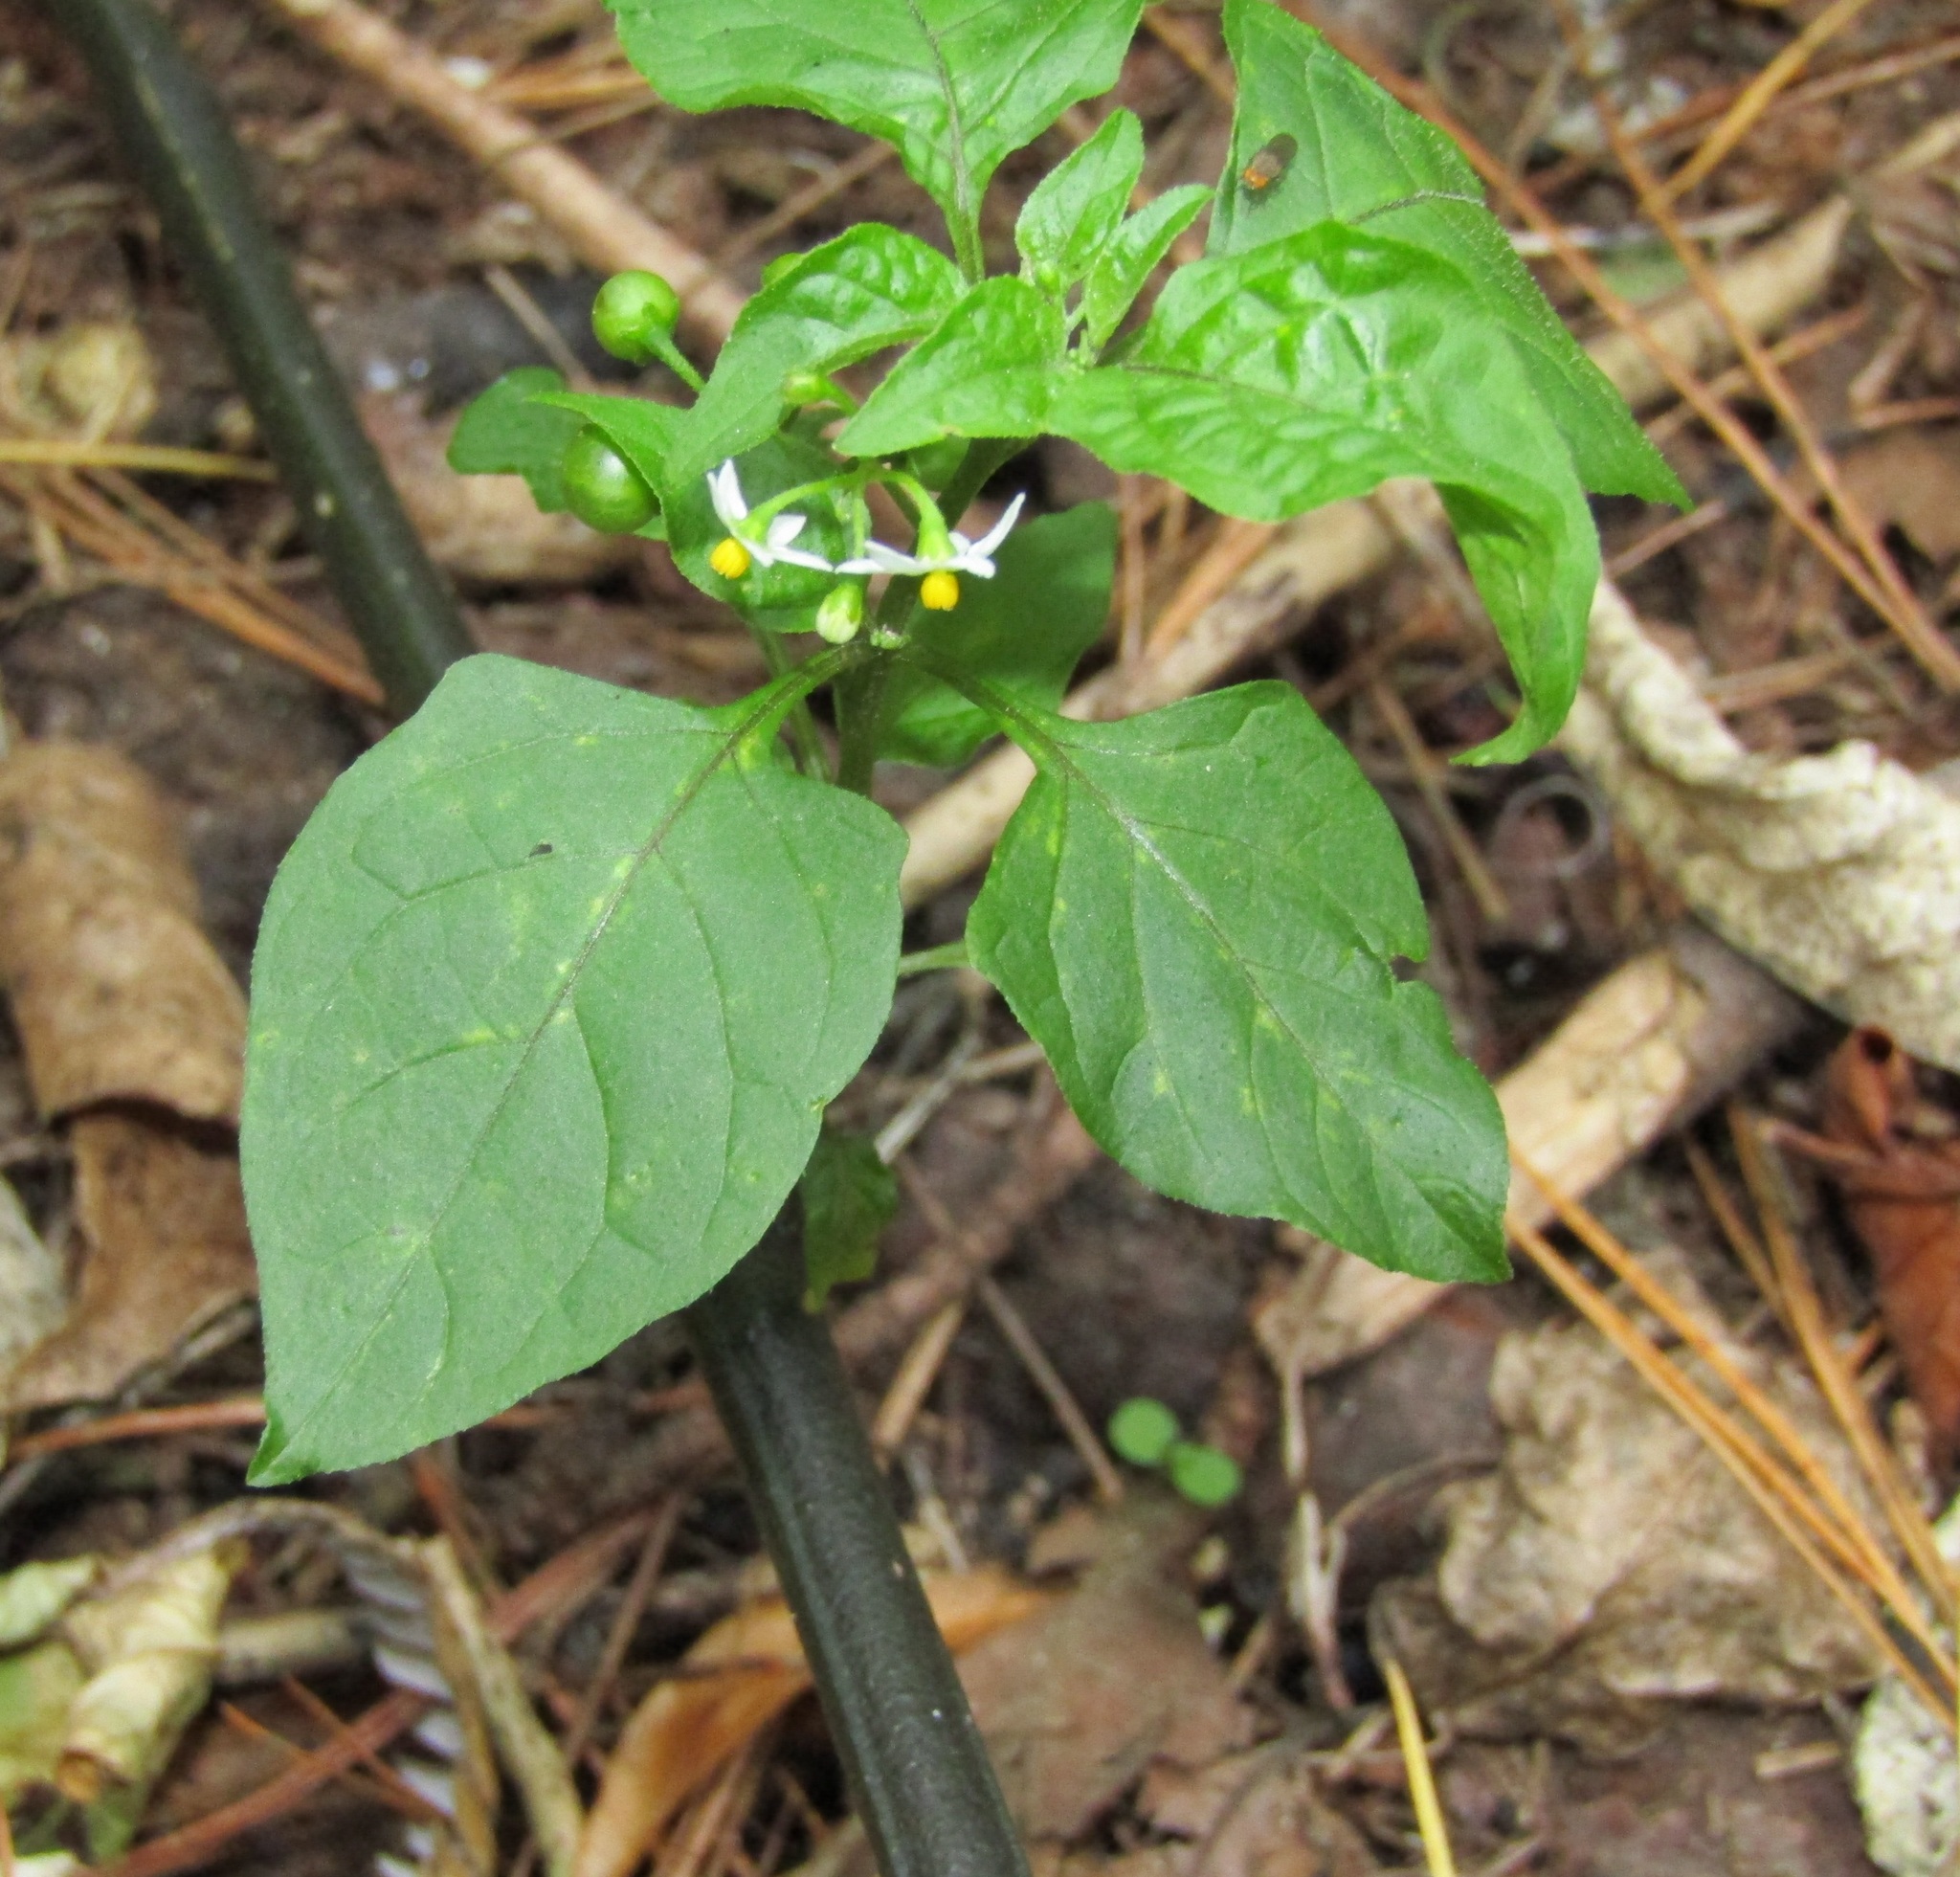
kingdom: Plantae
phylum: Tracheophyta
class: Magnoliopsida
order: Solanales
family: Solanaceae
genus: Solanum
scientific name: Solanum americanum
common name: American black nightshade
